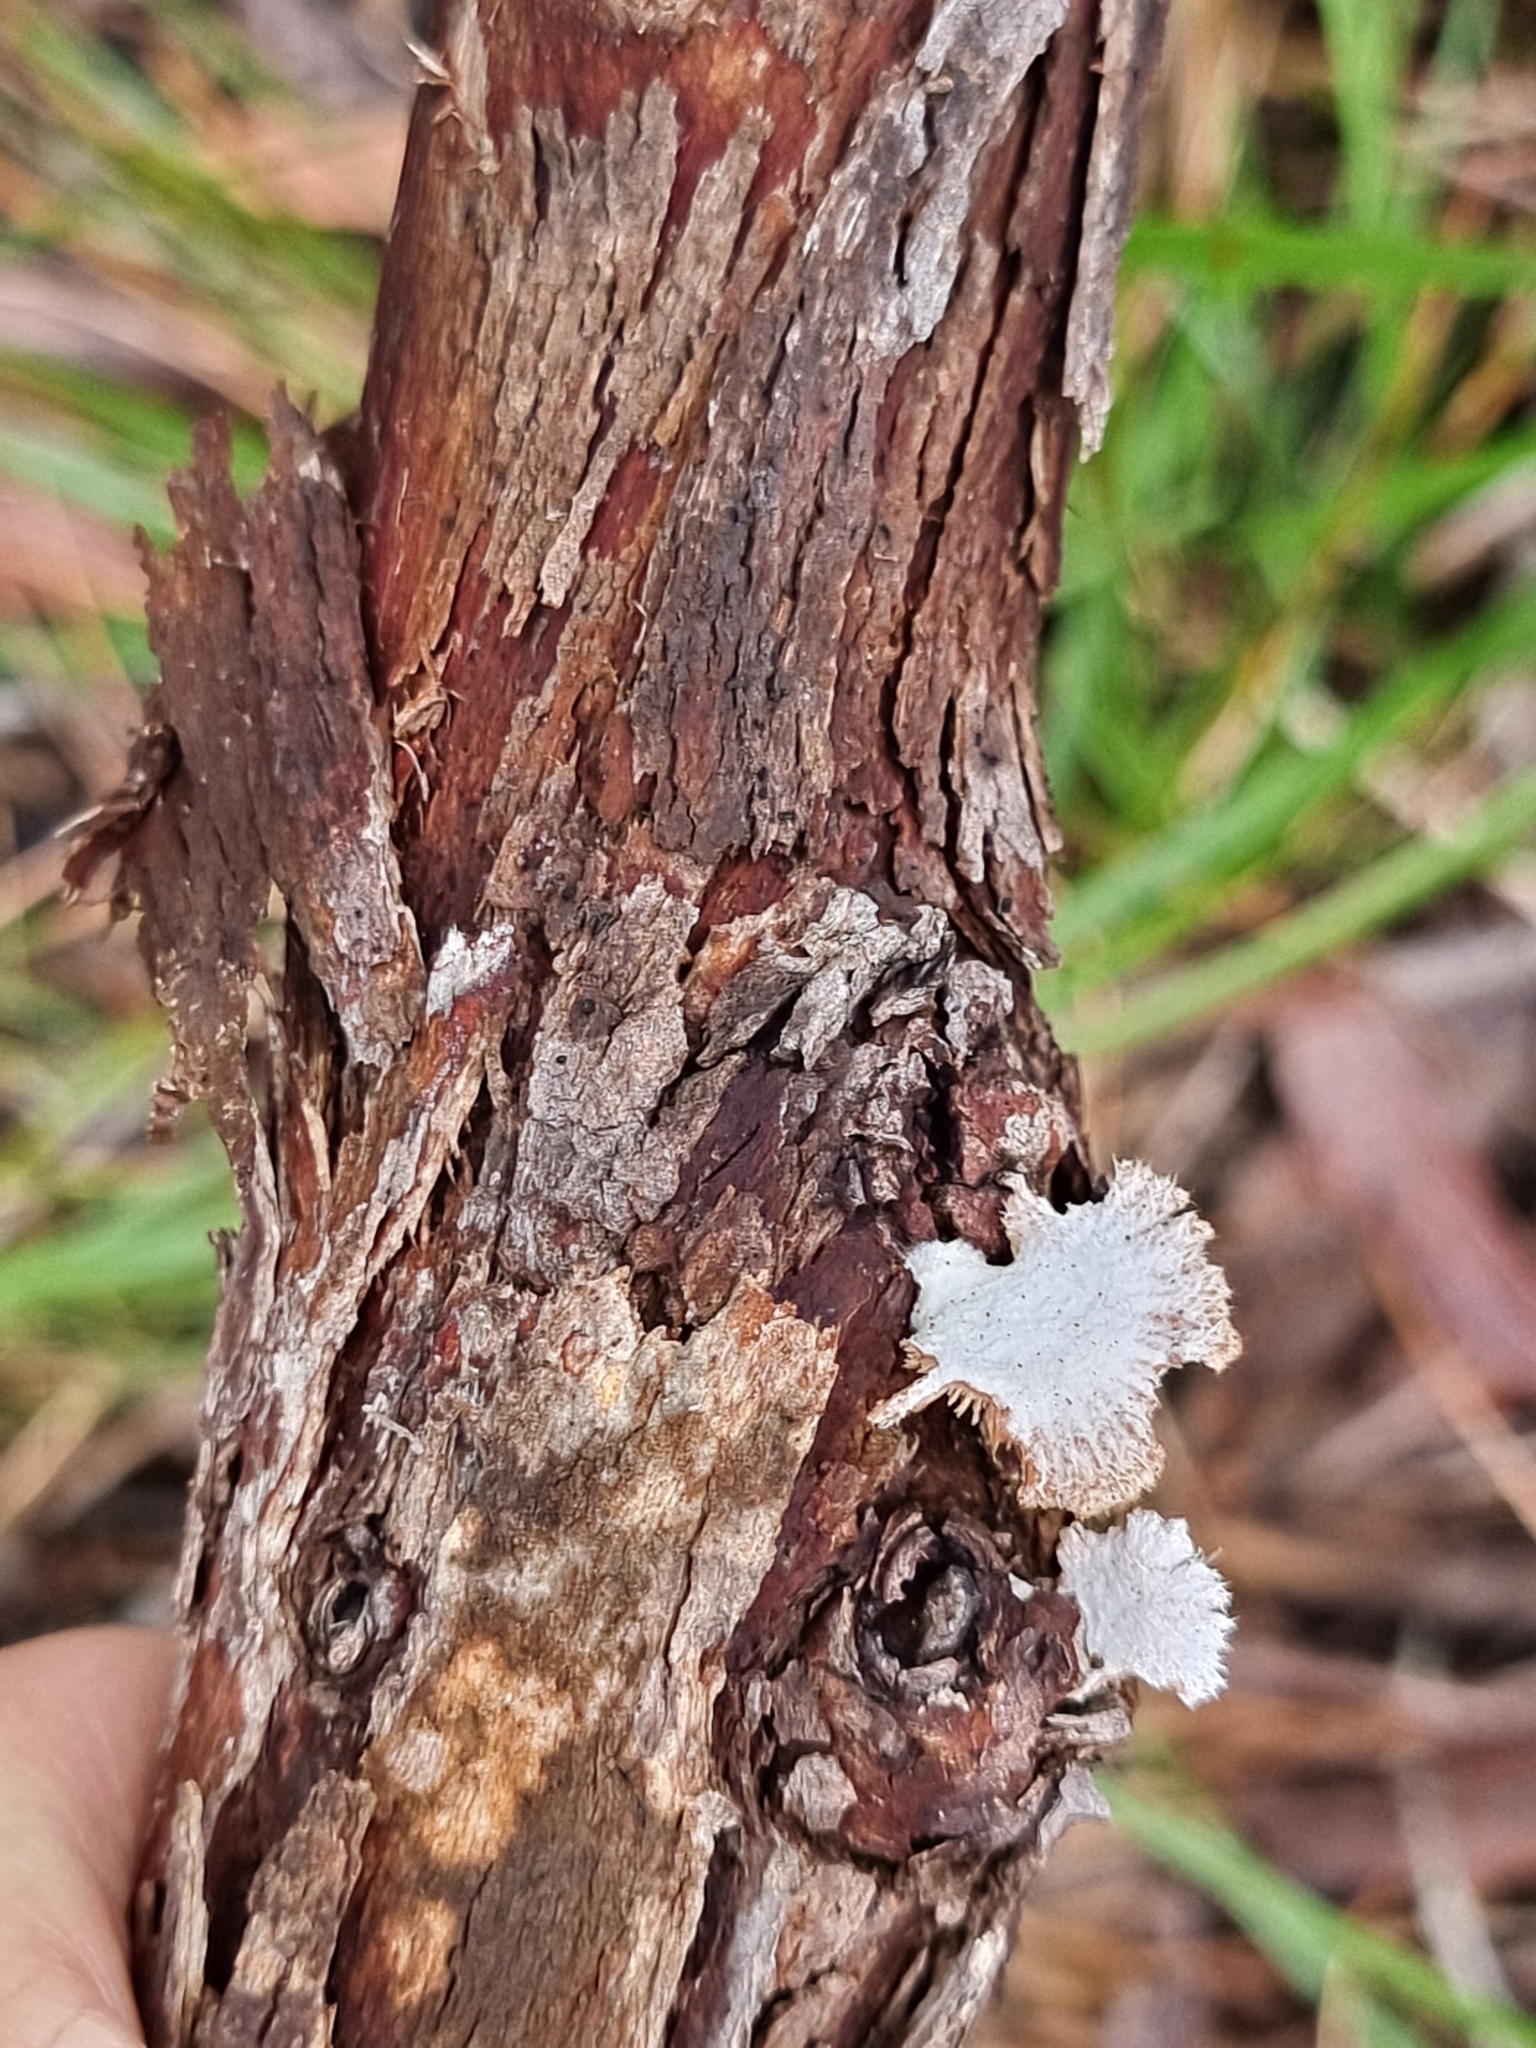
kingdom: Fungi
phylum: Basidiomycota
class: Agaricomycetes
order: Agaricales
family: Schizophyllaceae
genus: Schizophyllum
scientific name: Schizophyllum commune
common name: Common porecrust
